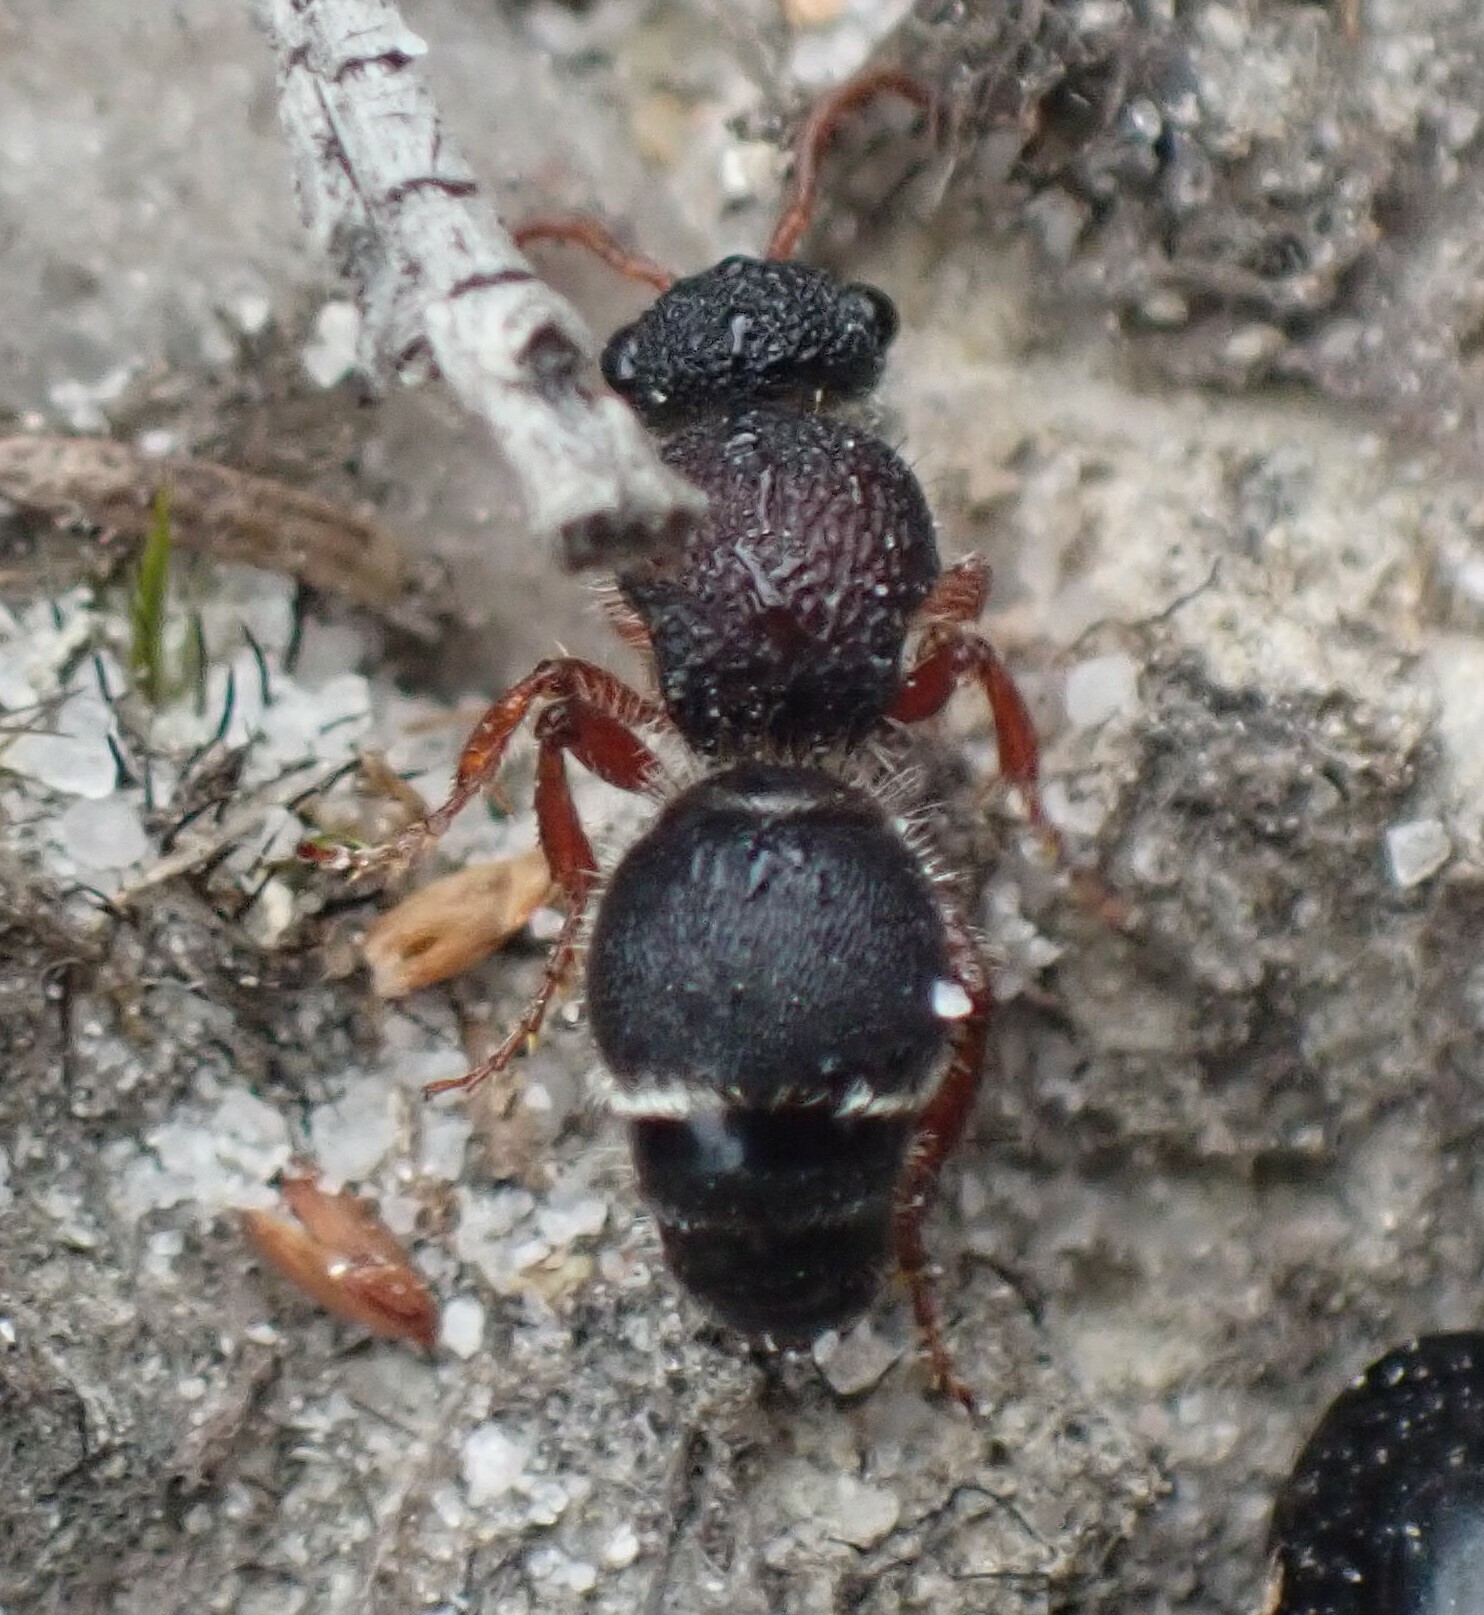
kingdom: Animalia
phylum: Arthropoda
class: Insecta
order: Hymenoptera
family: Mutillidae
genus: Ephutomorpha
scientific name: Ephutomorpha
